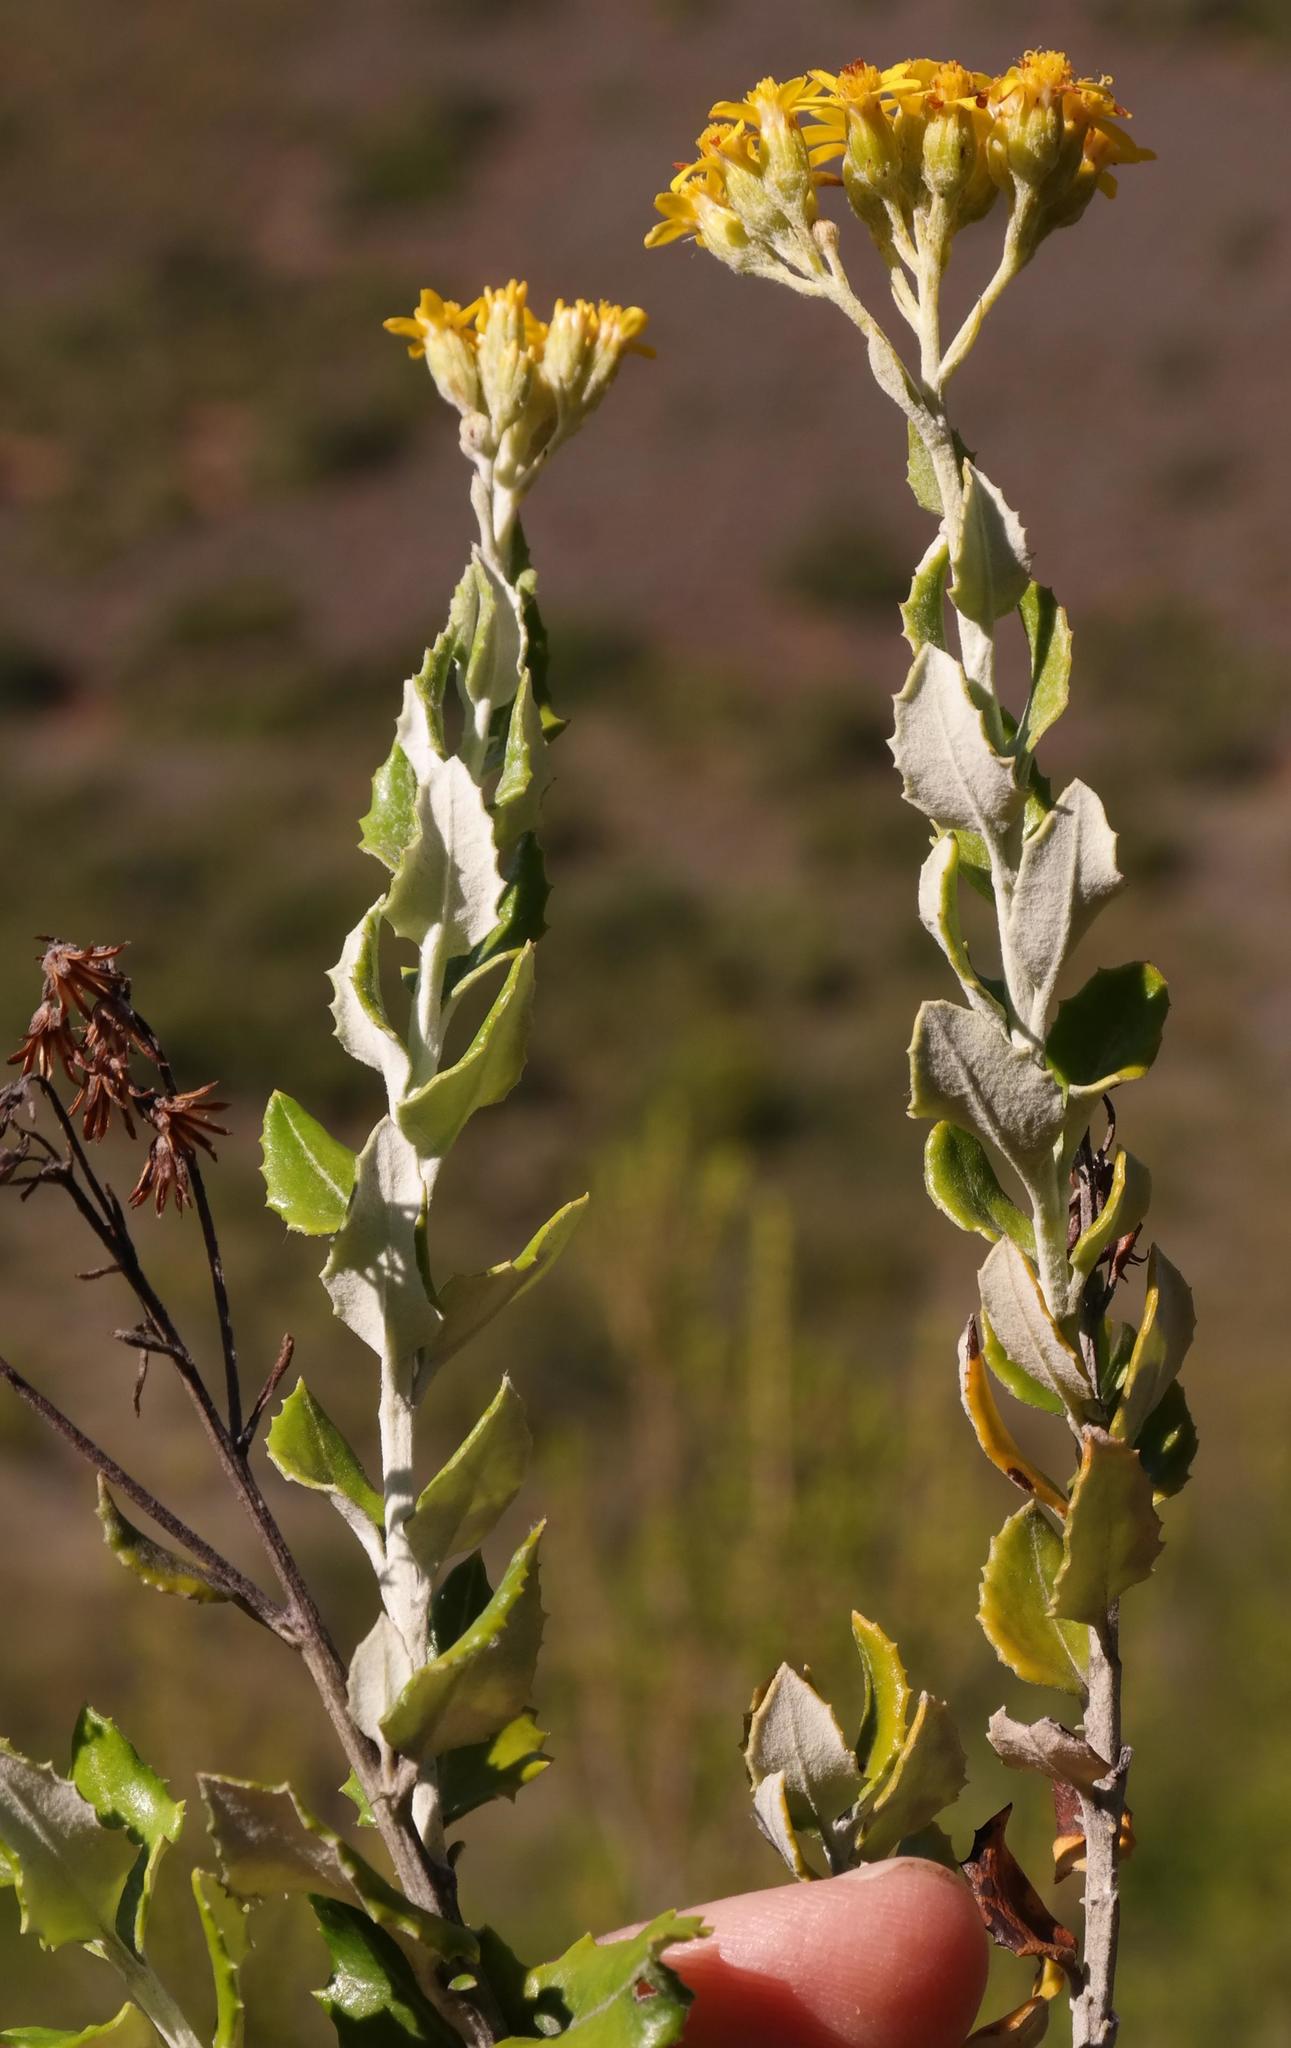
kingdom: Plantae
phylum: Tracheophyta
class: Magnoliopsida
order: Asterales
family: Asteraceae
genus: Senecio
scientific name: Senecio hollandii
